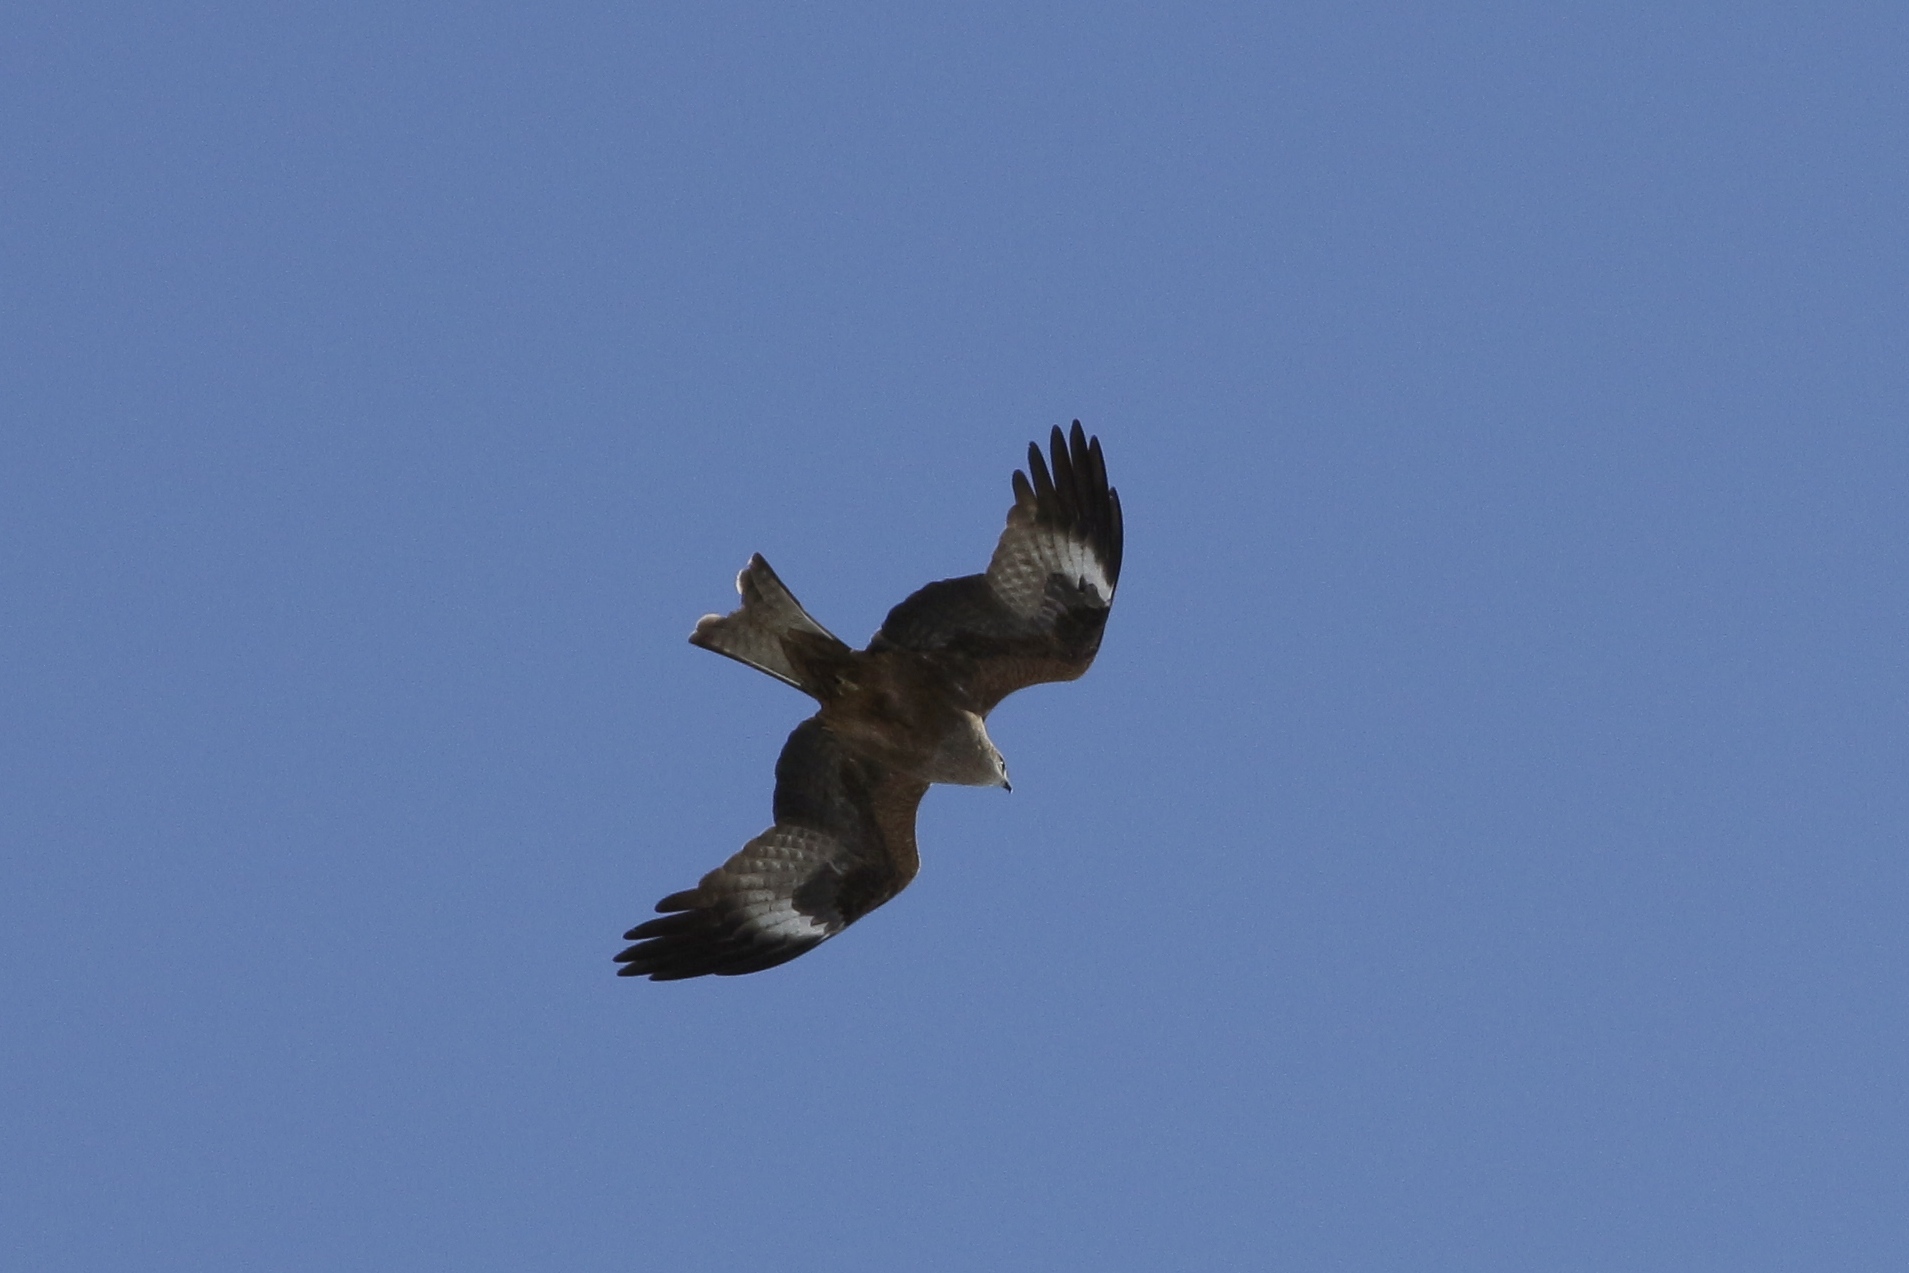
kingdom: Animalia
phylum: Chordata
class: Aves
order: Accipitriformes
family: Accipitridae
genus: Milvus
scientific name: Milvus migrans
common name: Black kite
